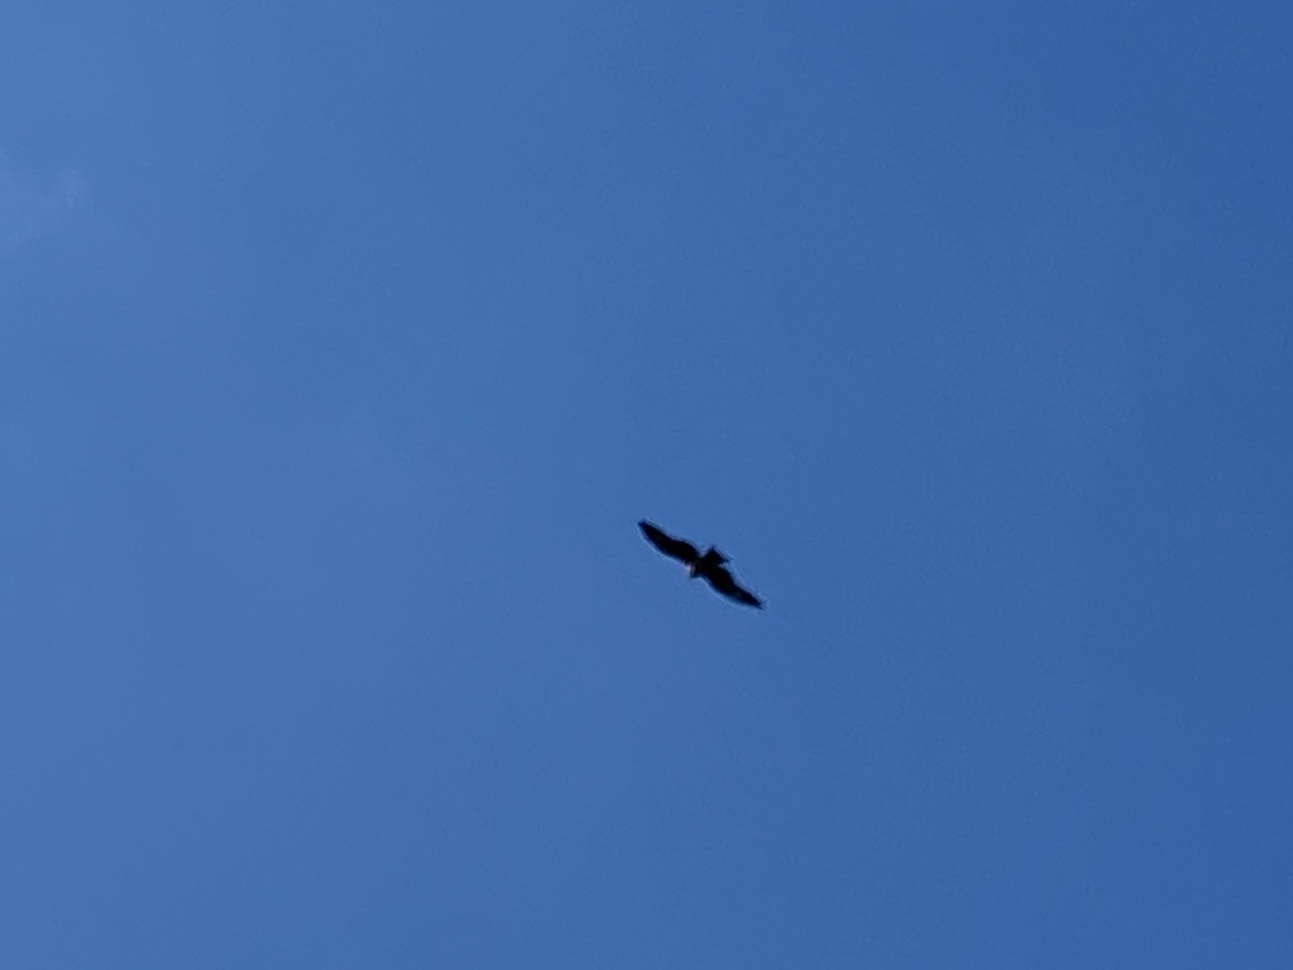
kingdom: Animalia
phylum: Chordata
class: Aves
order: Accipitriformes
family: Accipitridae
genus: Milvus
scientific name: Milvus migrans
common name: Black kite
